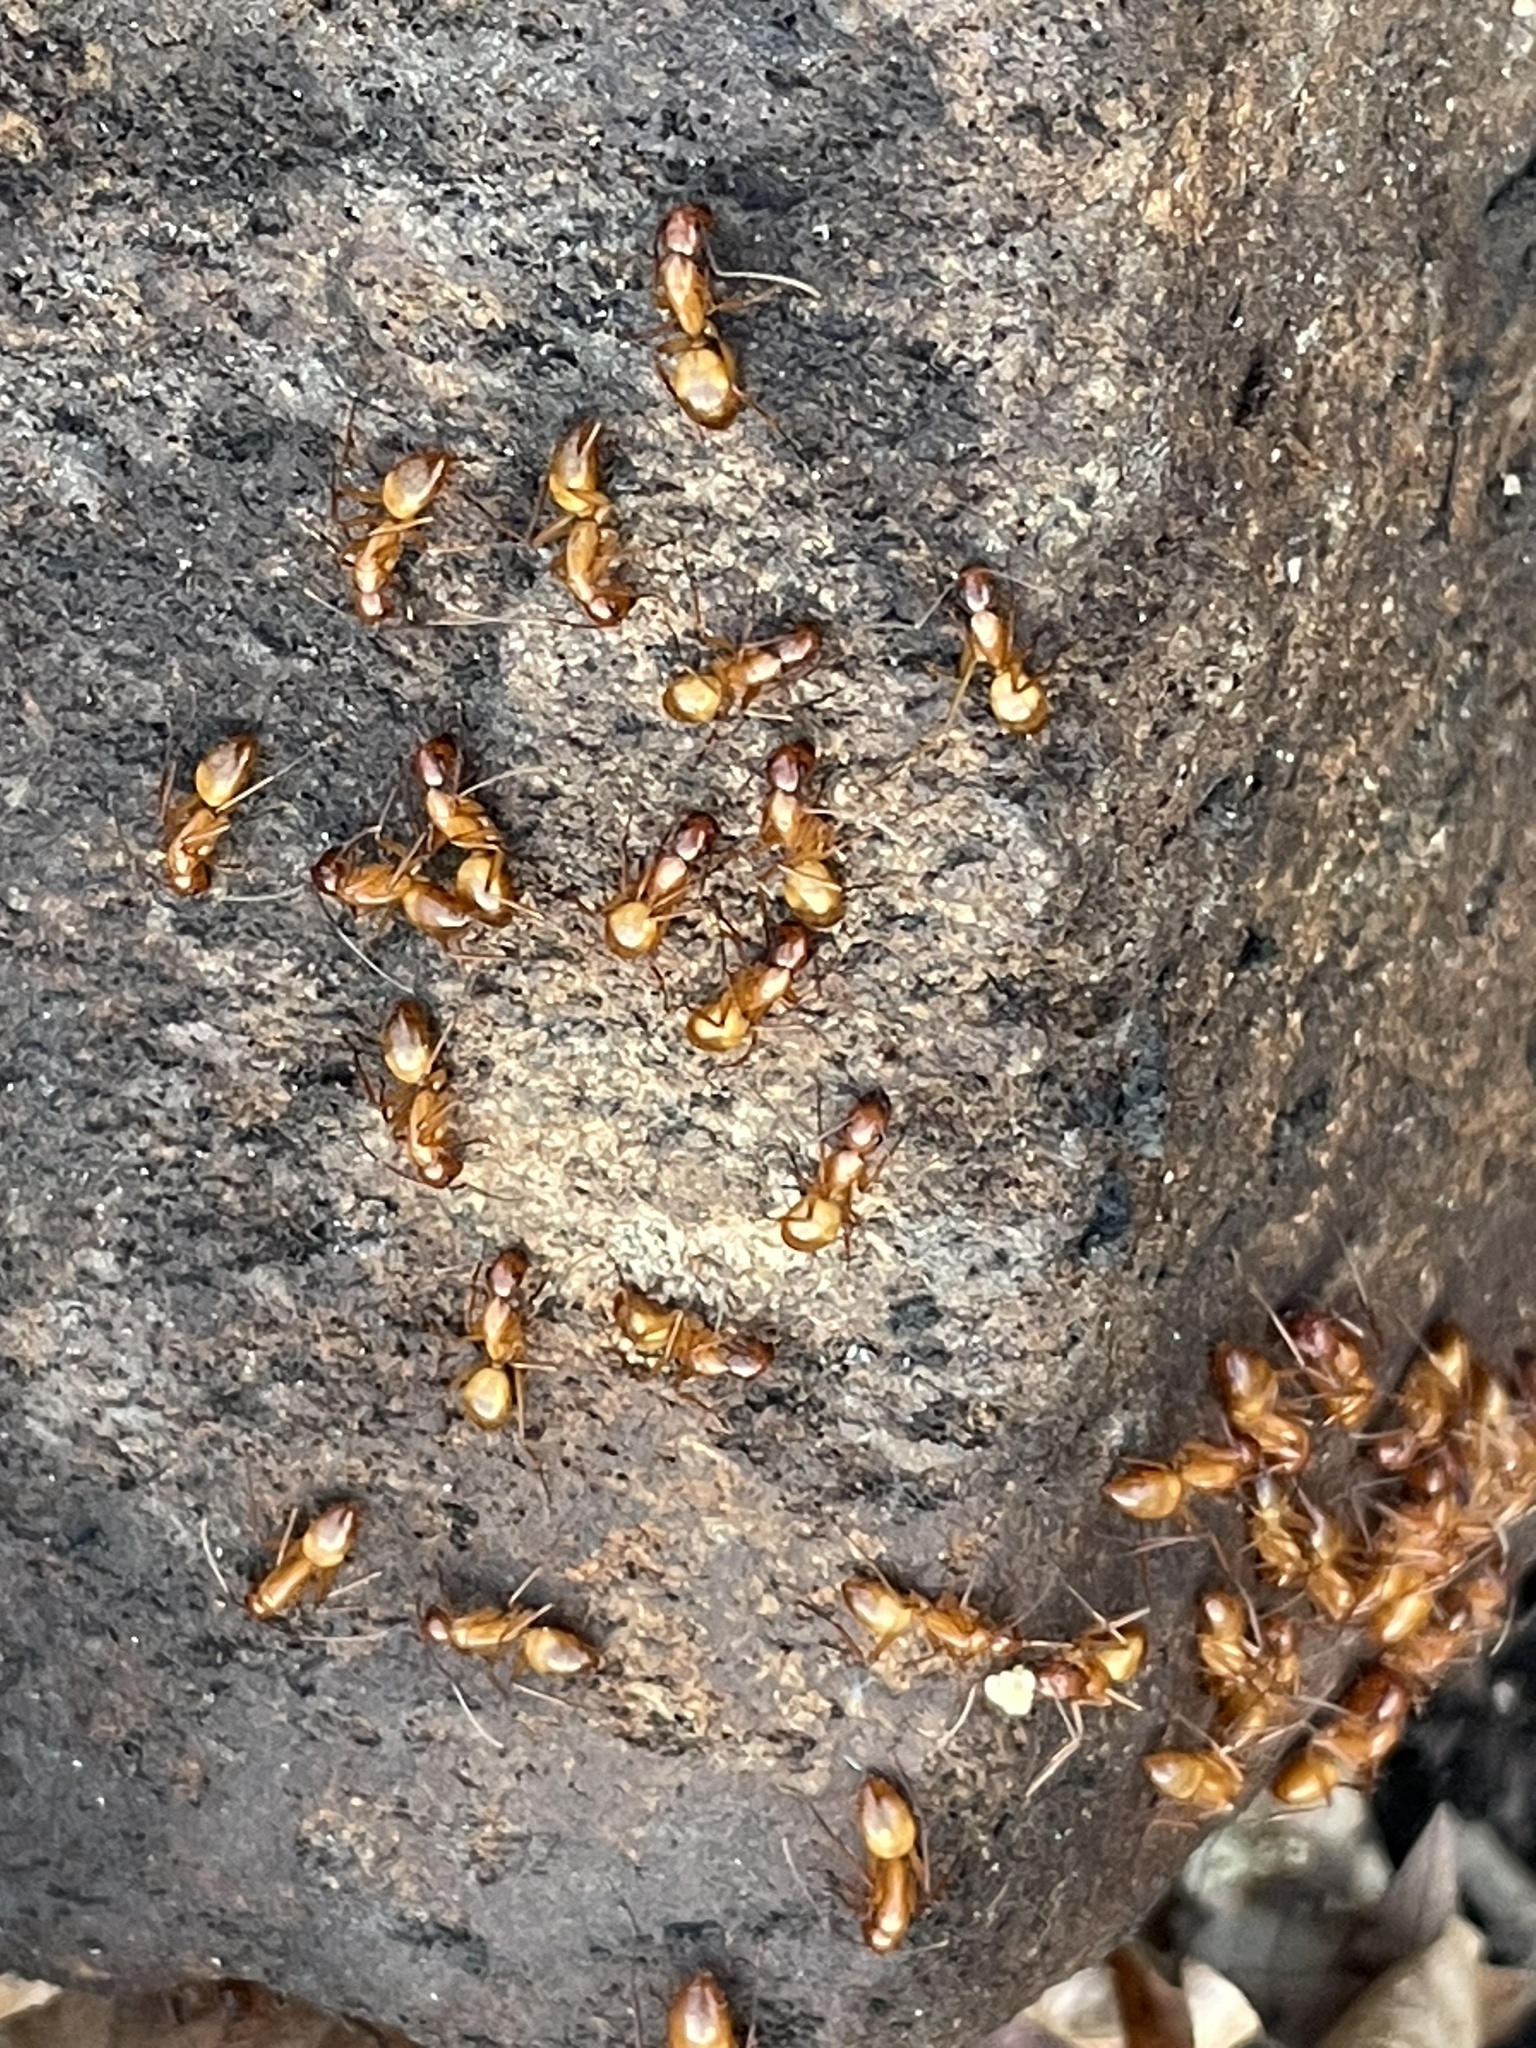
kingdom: Animalia
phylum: Arthropoda
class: Insecta
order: Hymenoptera
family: Formicidae
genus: Camponotus
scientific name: Camponotus castaneus
